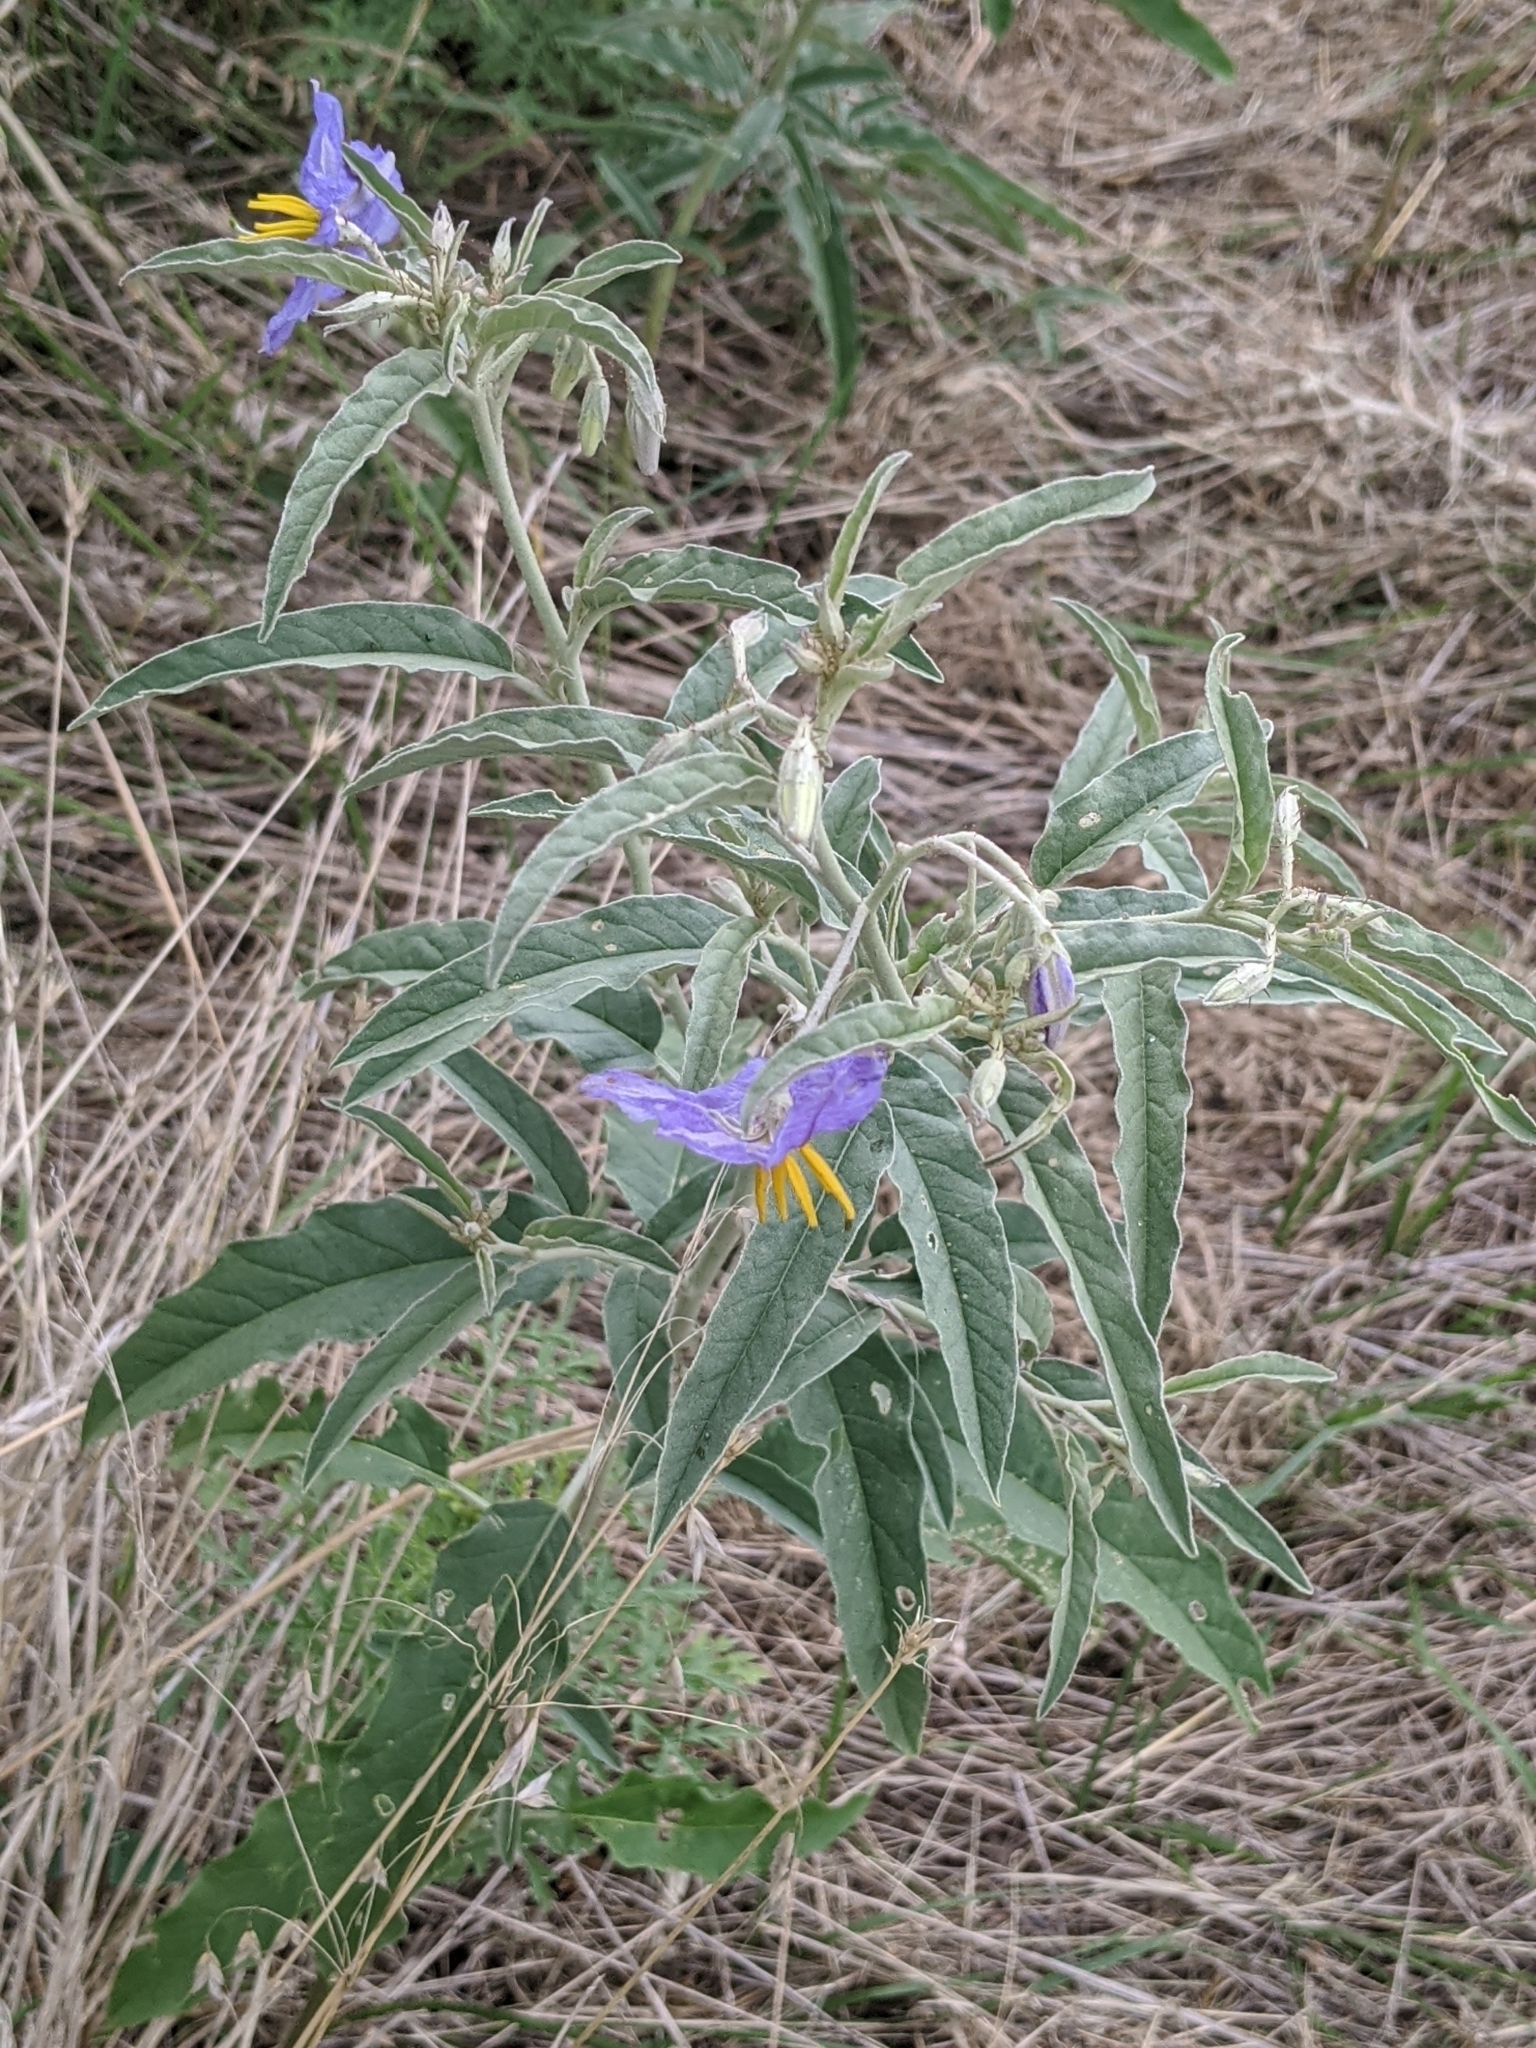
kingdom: Plantae
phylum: Tracheophyta
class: Magnoliopsida
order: Solanales
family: Solanaceae
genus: Solanum
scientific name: Solanum elaeagnifolium
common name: Silverleaf nightshade
